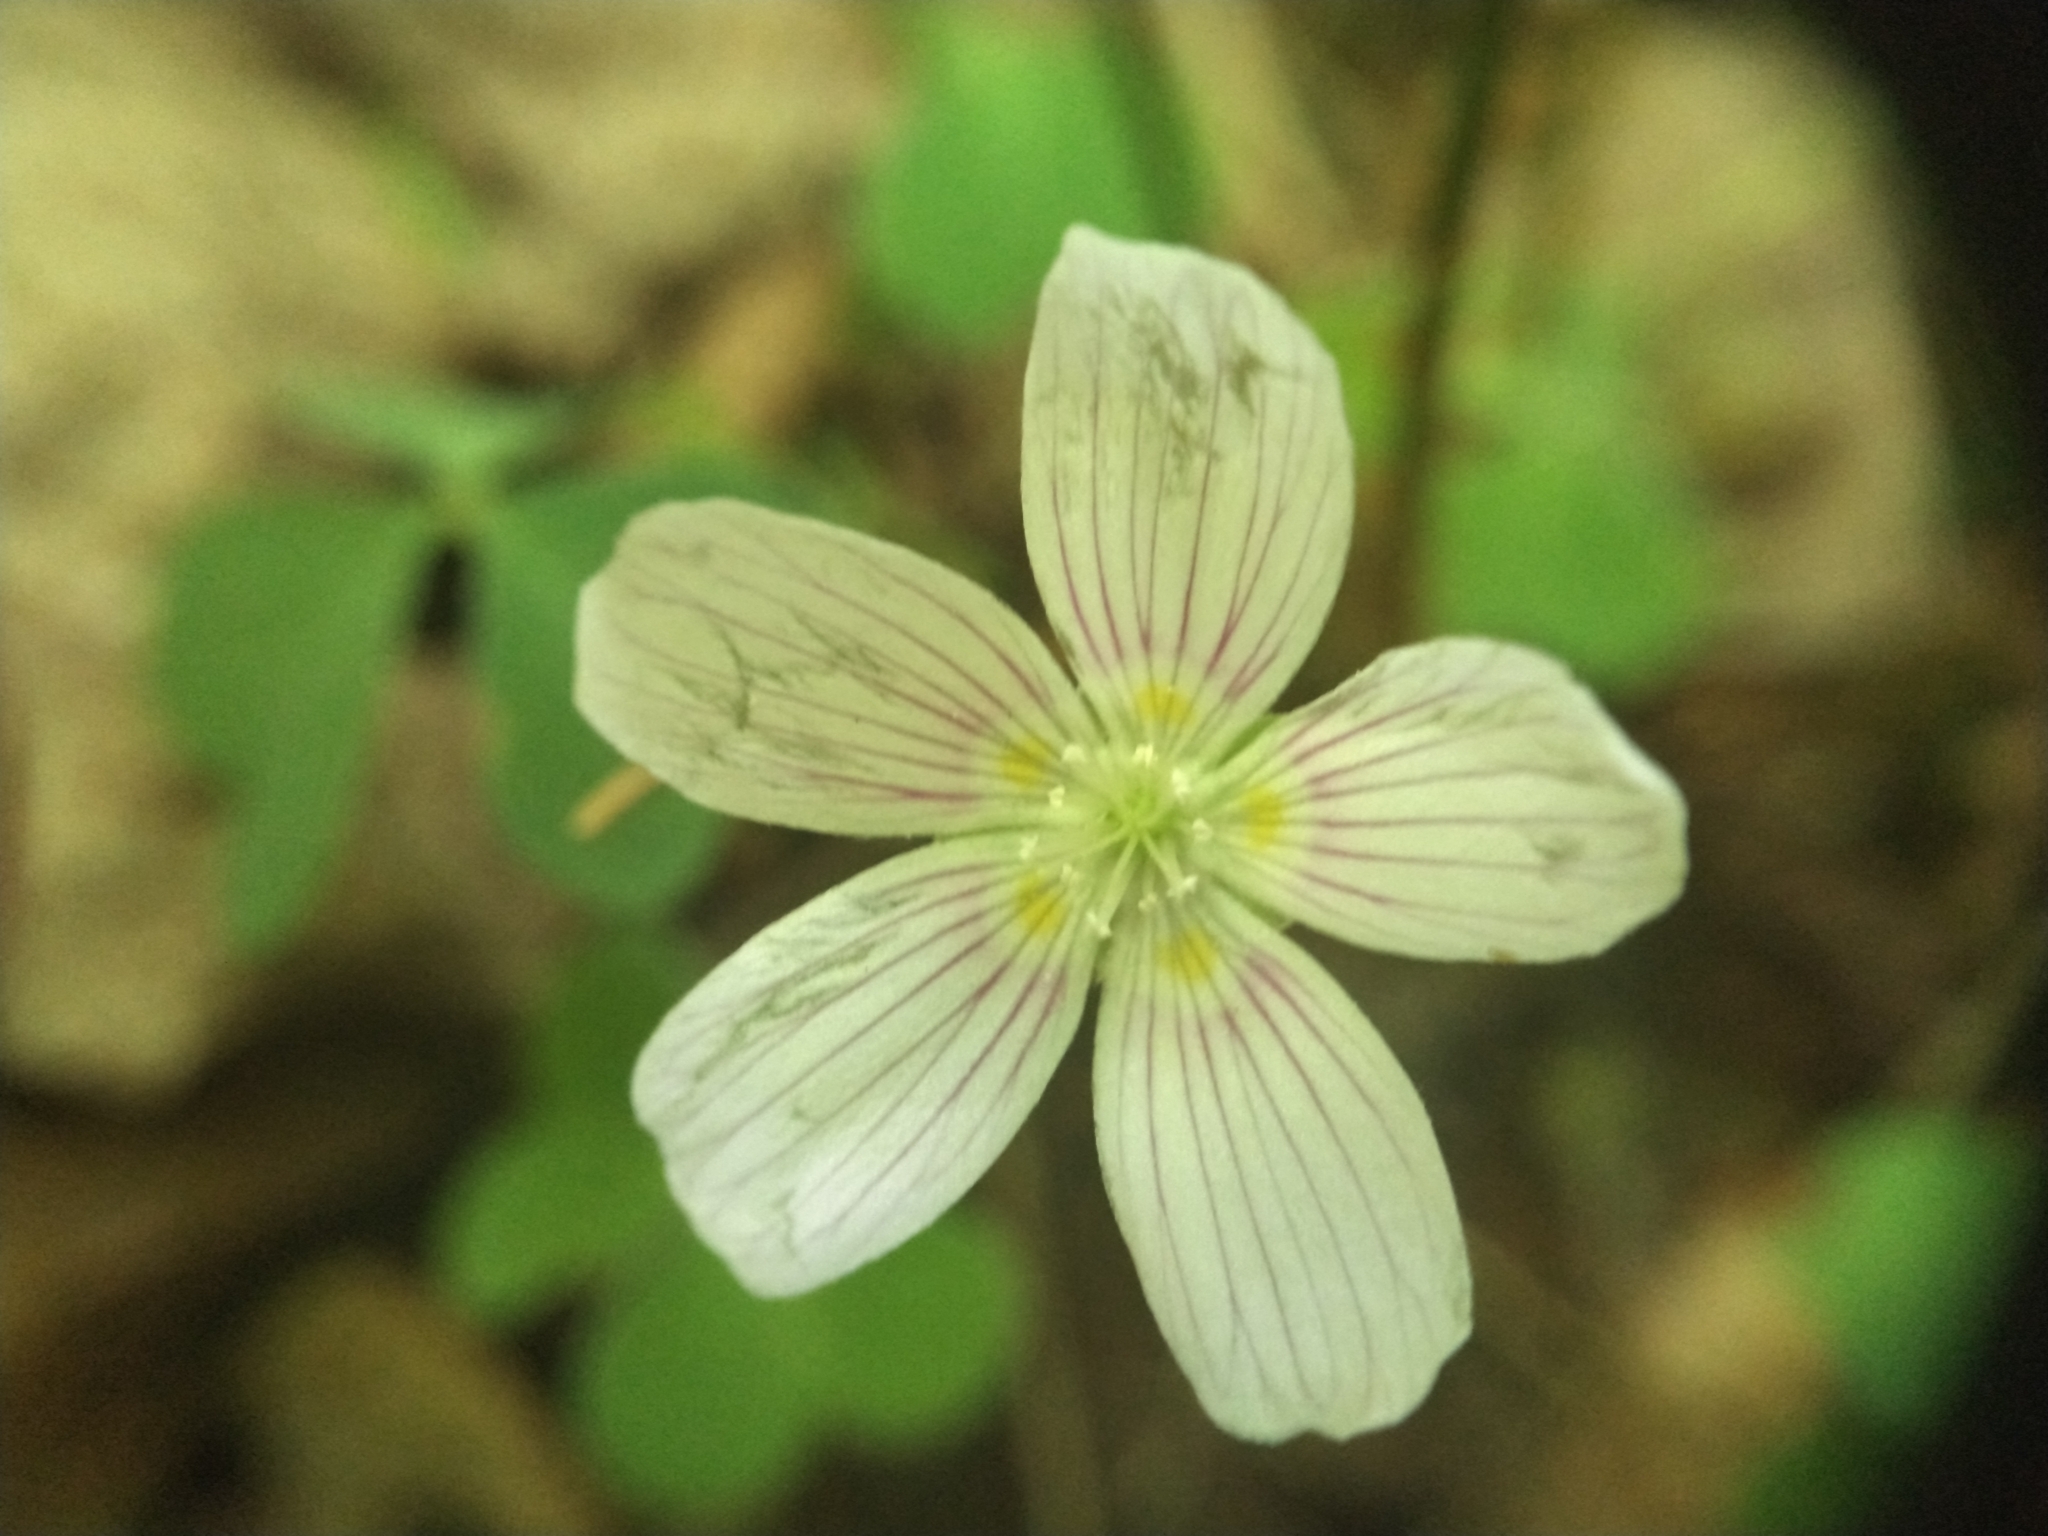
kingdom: Plantae
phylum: Tracheophyta
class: Magnoliopsida
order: Oxalidales
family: Oxalidaceae
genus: Oxalis
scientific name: Oxalis montana
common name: American wood-sorrel
